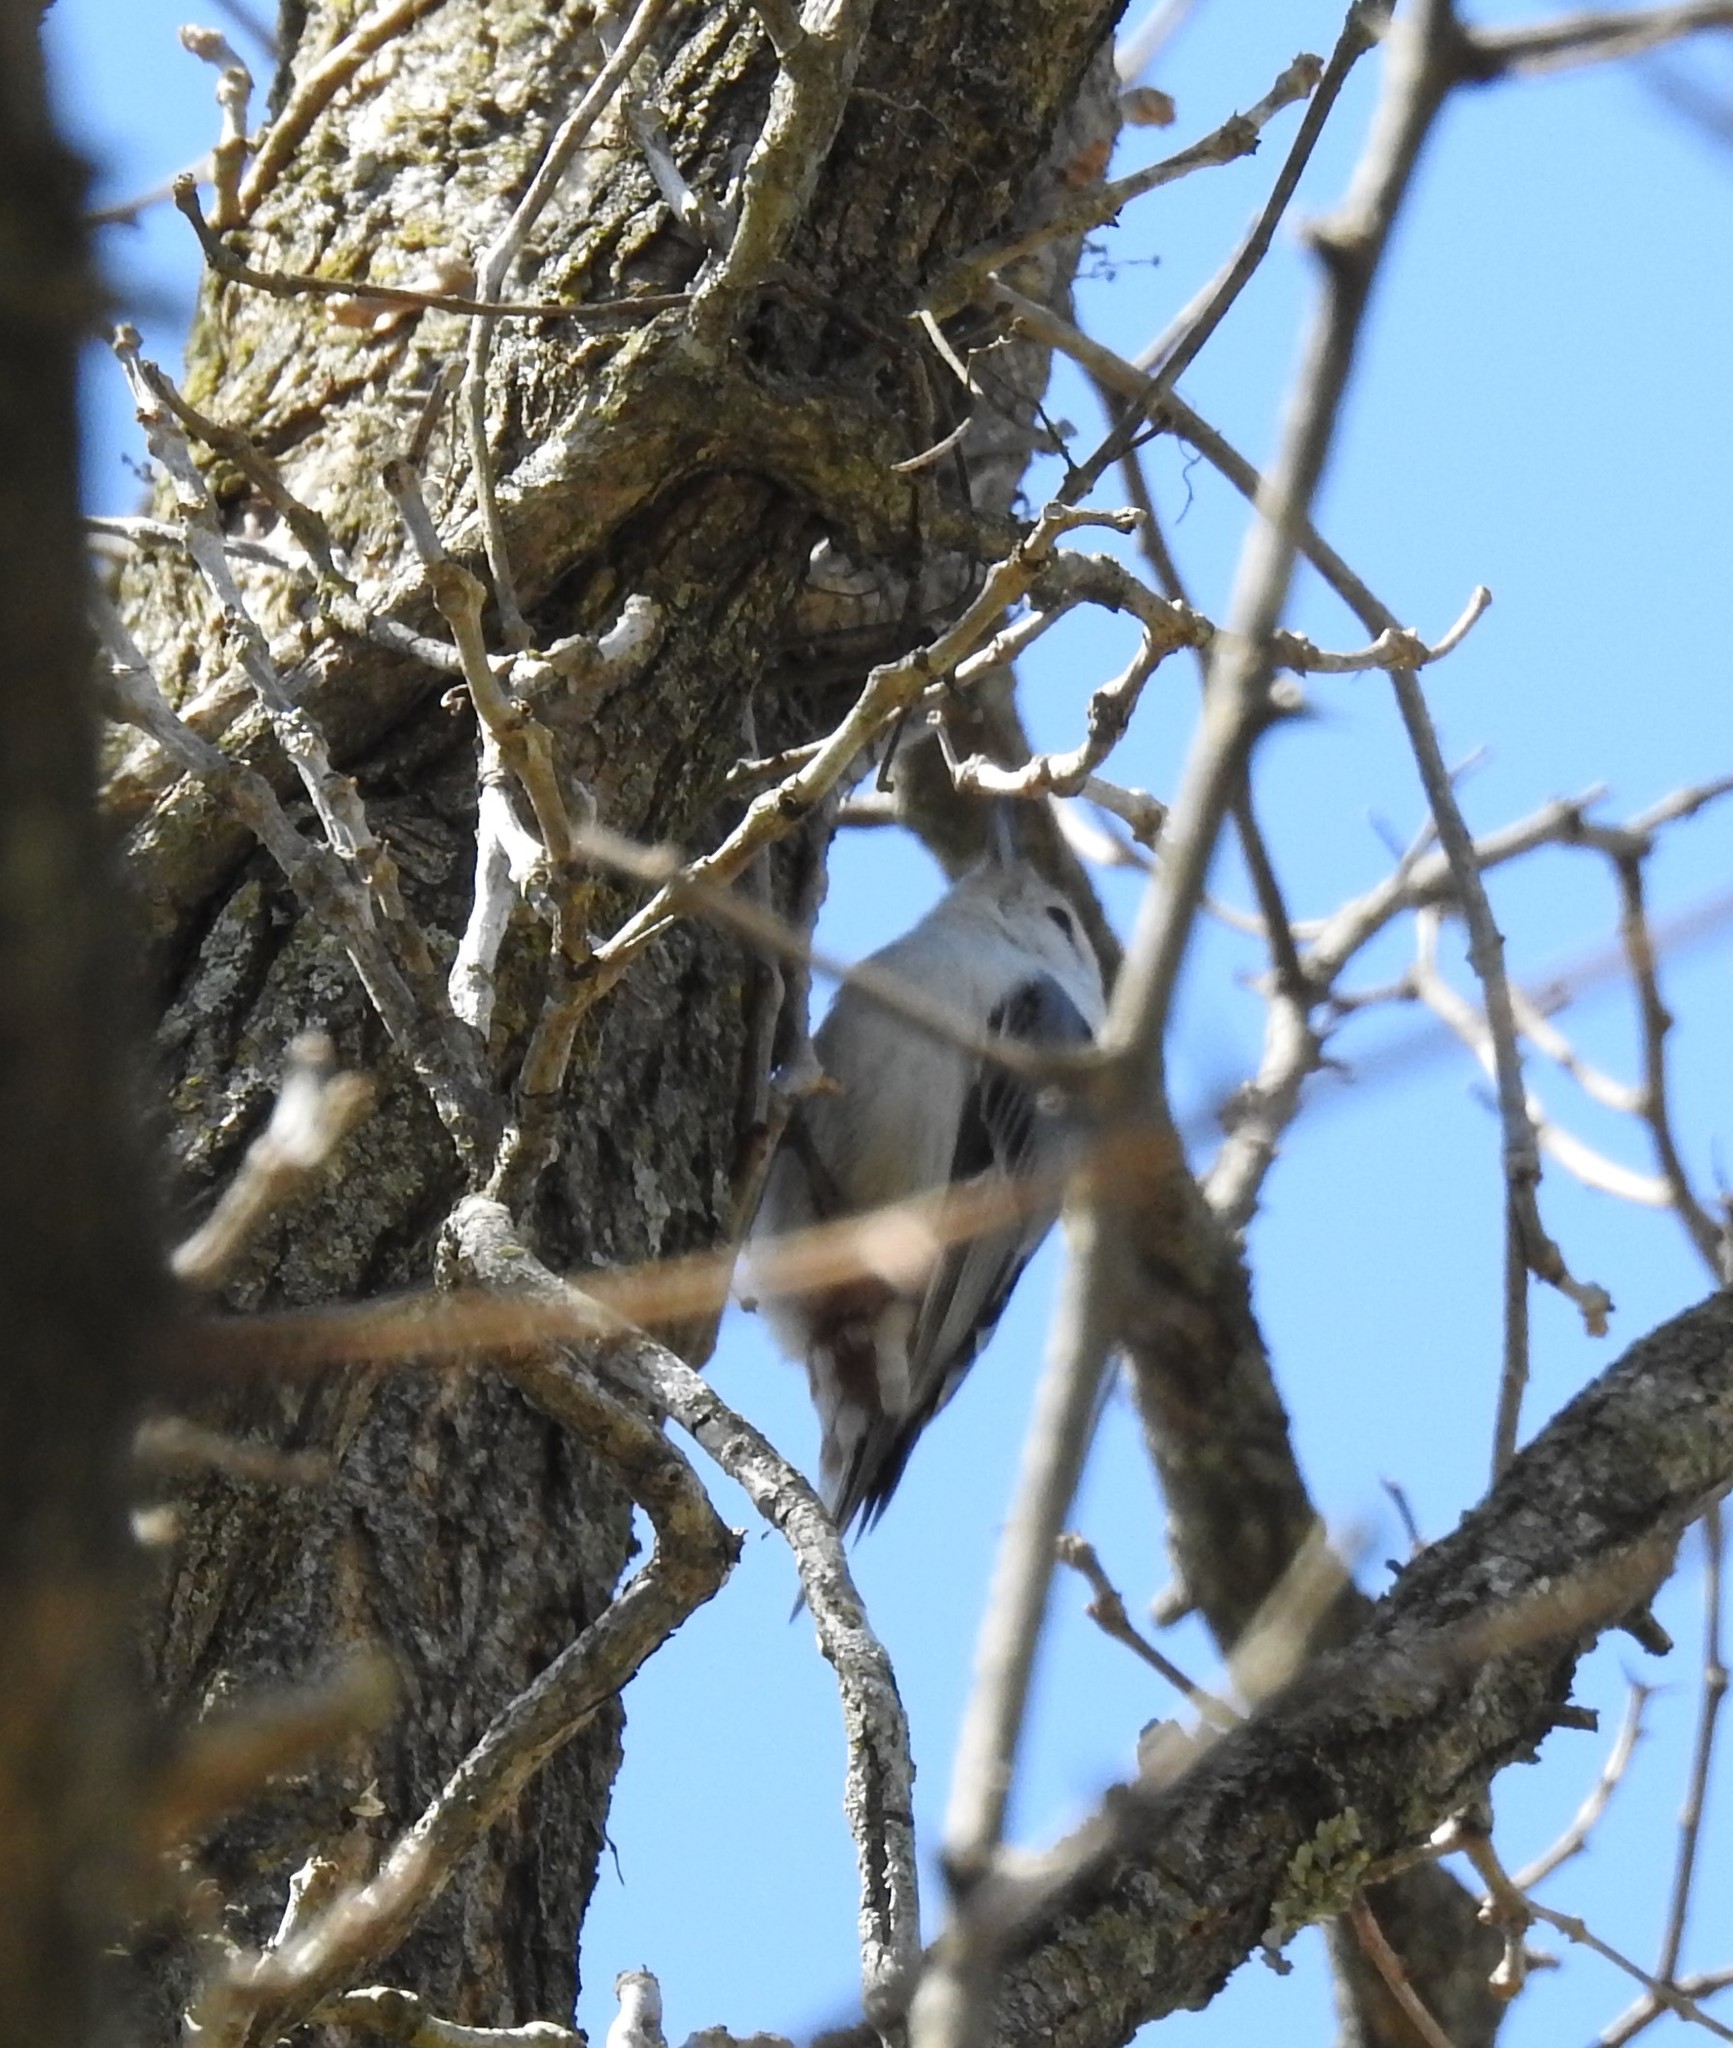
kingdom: Animalia
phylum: Chordata
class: Aves
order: Passeriformes
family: Sittidae
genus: Sitta
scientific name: Sitta carolinensis
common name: White-breasted nuthatch
